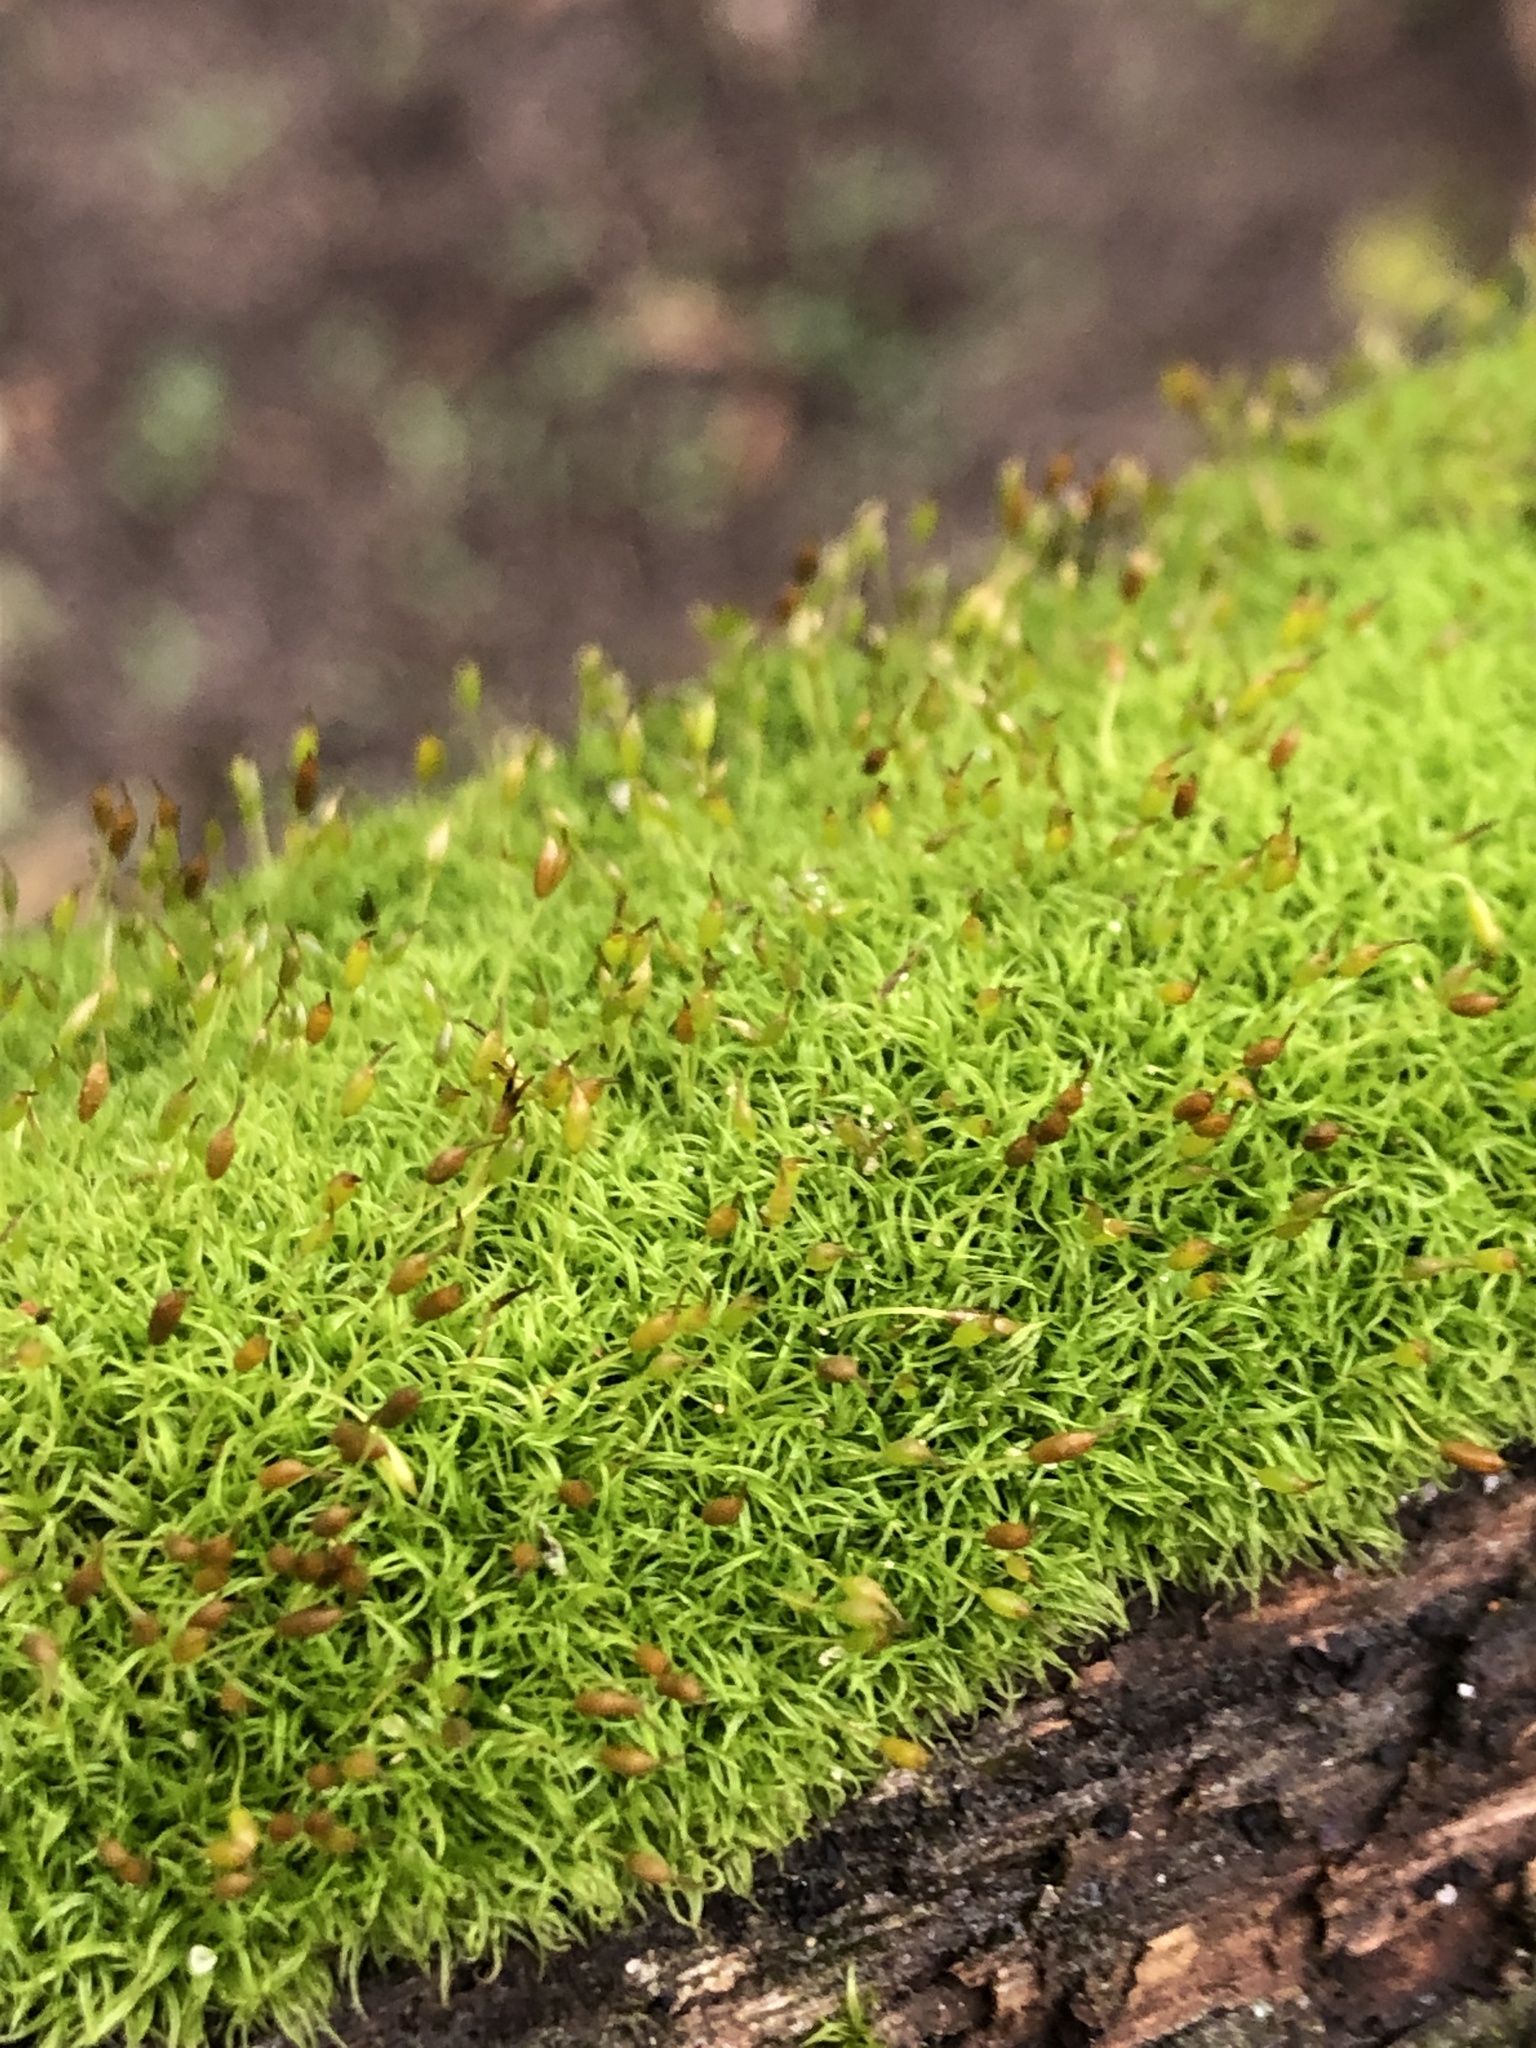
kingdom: Plantae
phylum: Bryophyta
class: Bryopsida
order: Dicranales
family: Rhabdoweisiaceae
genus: Dicranoweisia
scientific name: Dicranoweisia cirrata
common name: Common pincushion
